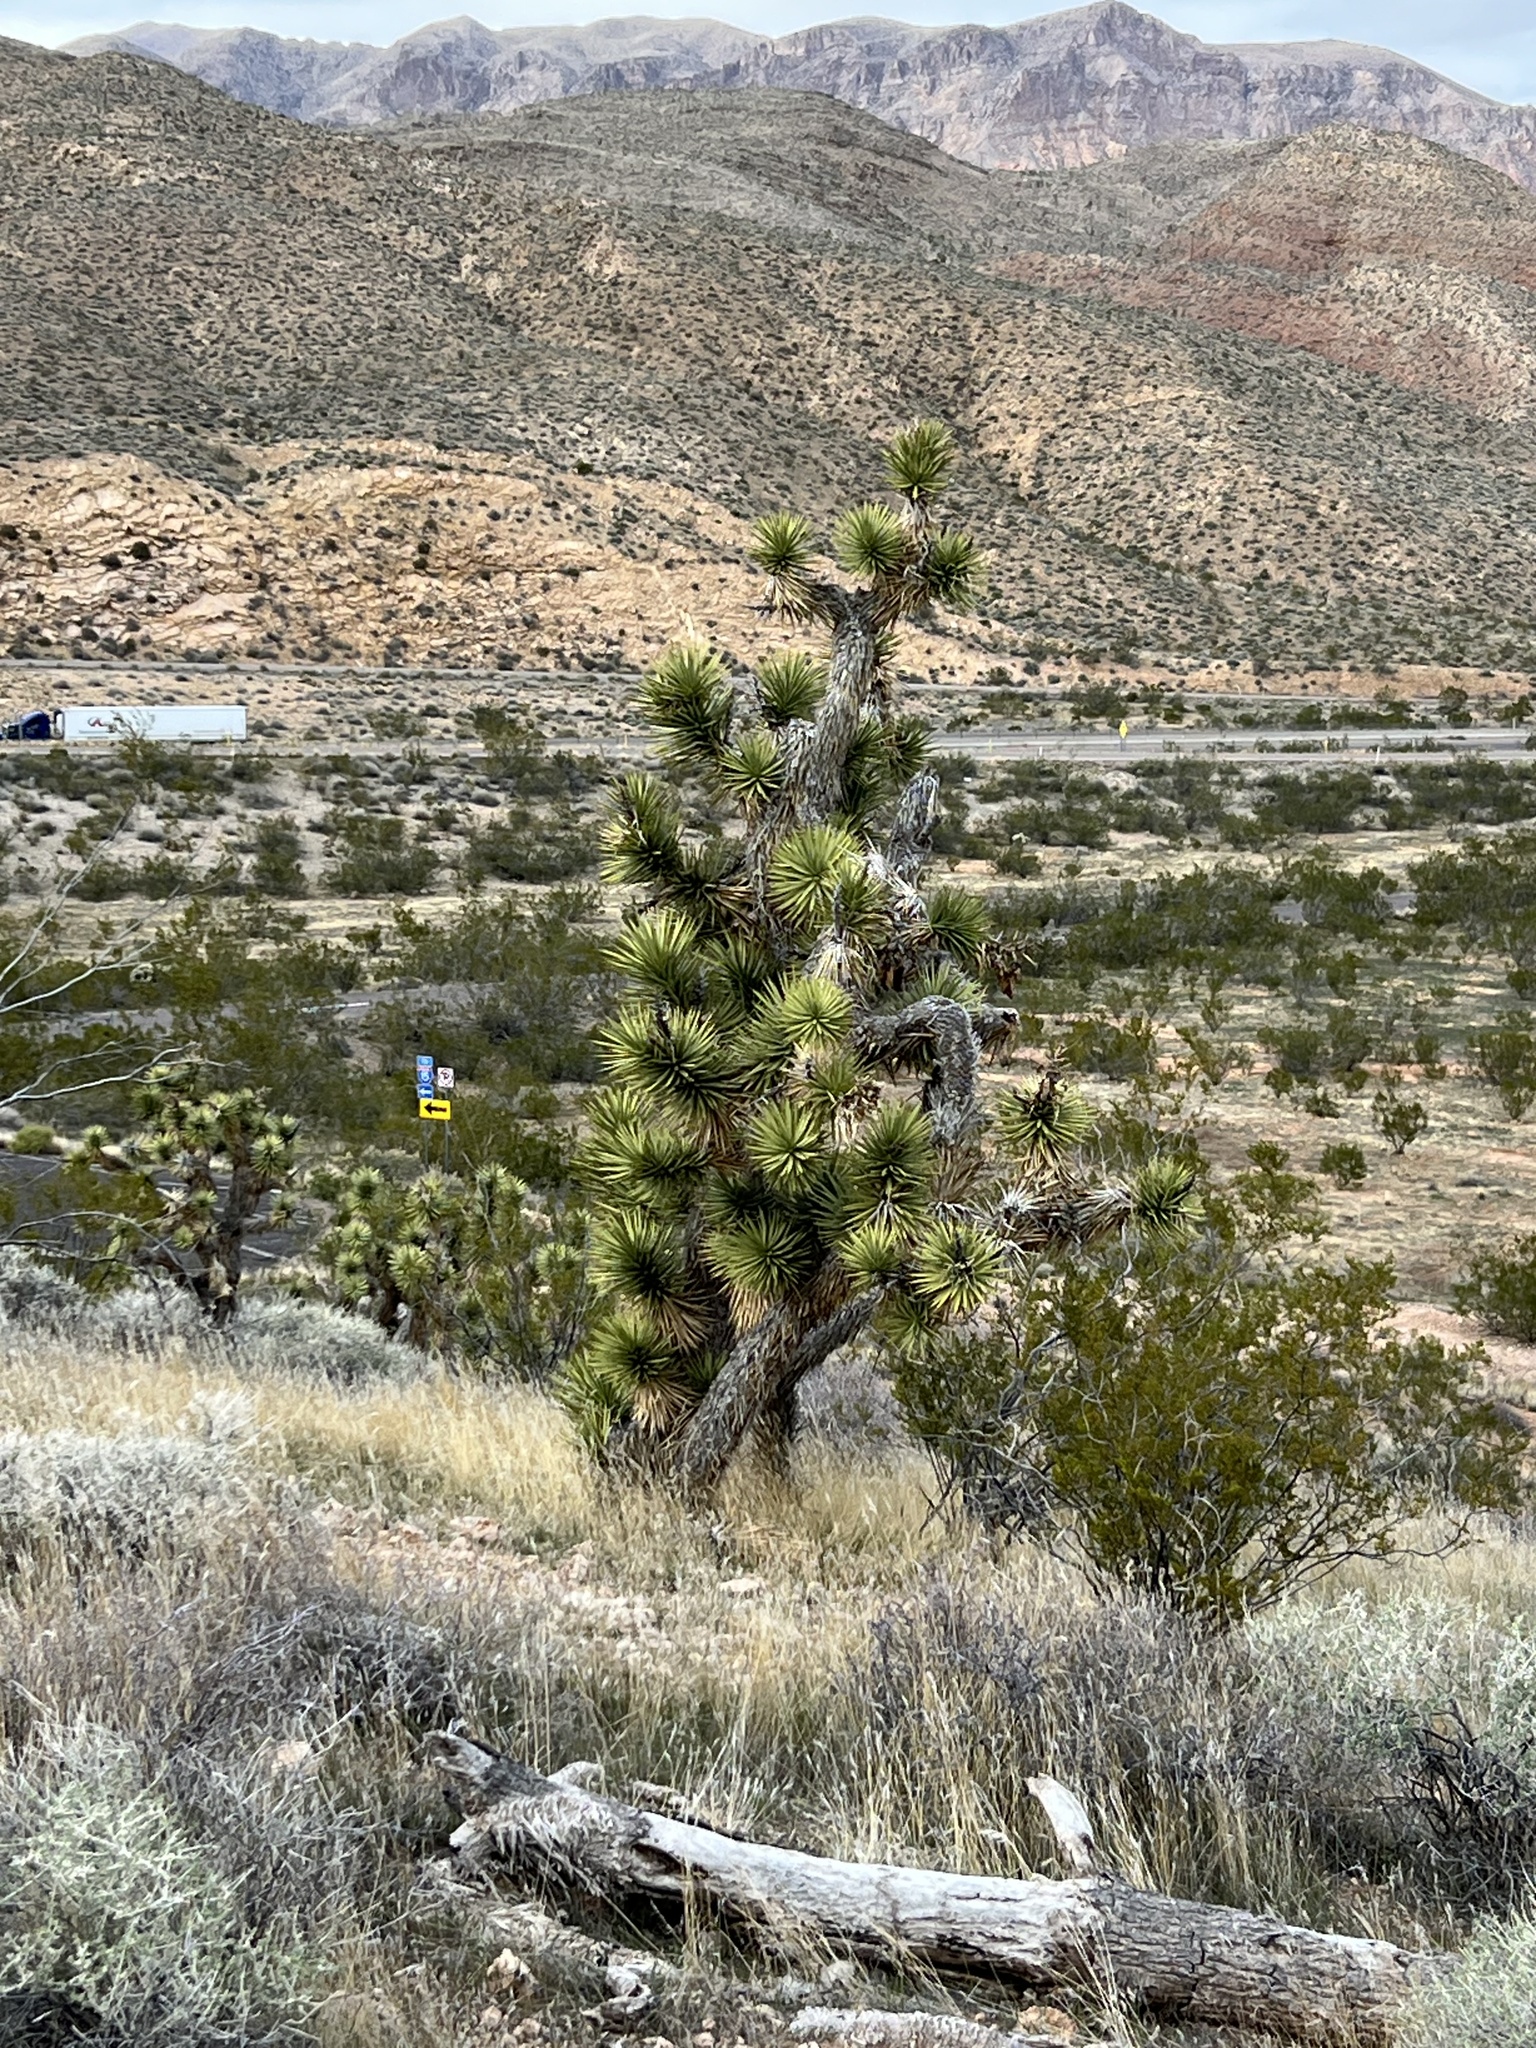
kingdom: Plantae
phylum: Tracheophyta
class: Liliopsida
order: Asparagales
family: Asparagaceae
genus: Yucca
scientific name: Yucca brevifolia
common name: Joshua tree
